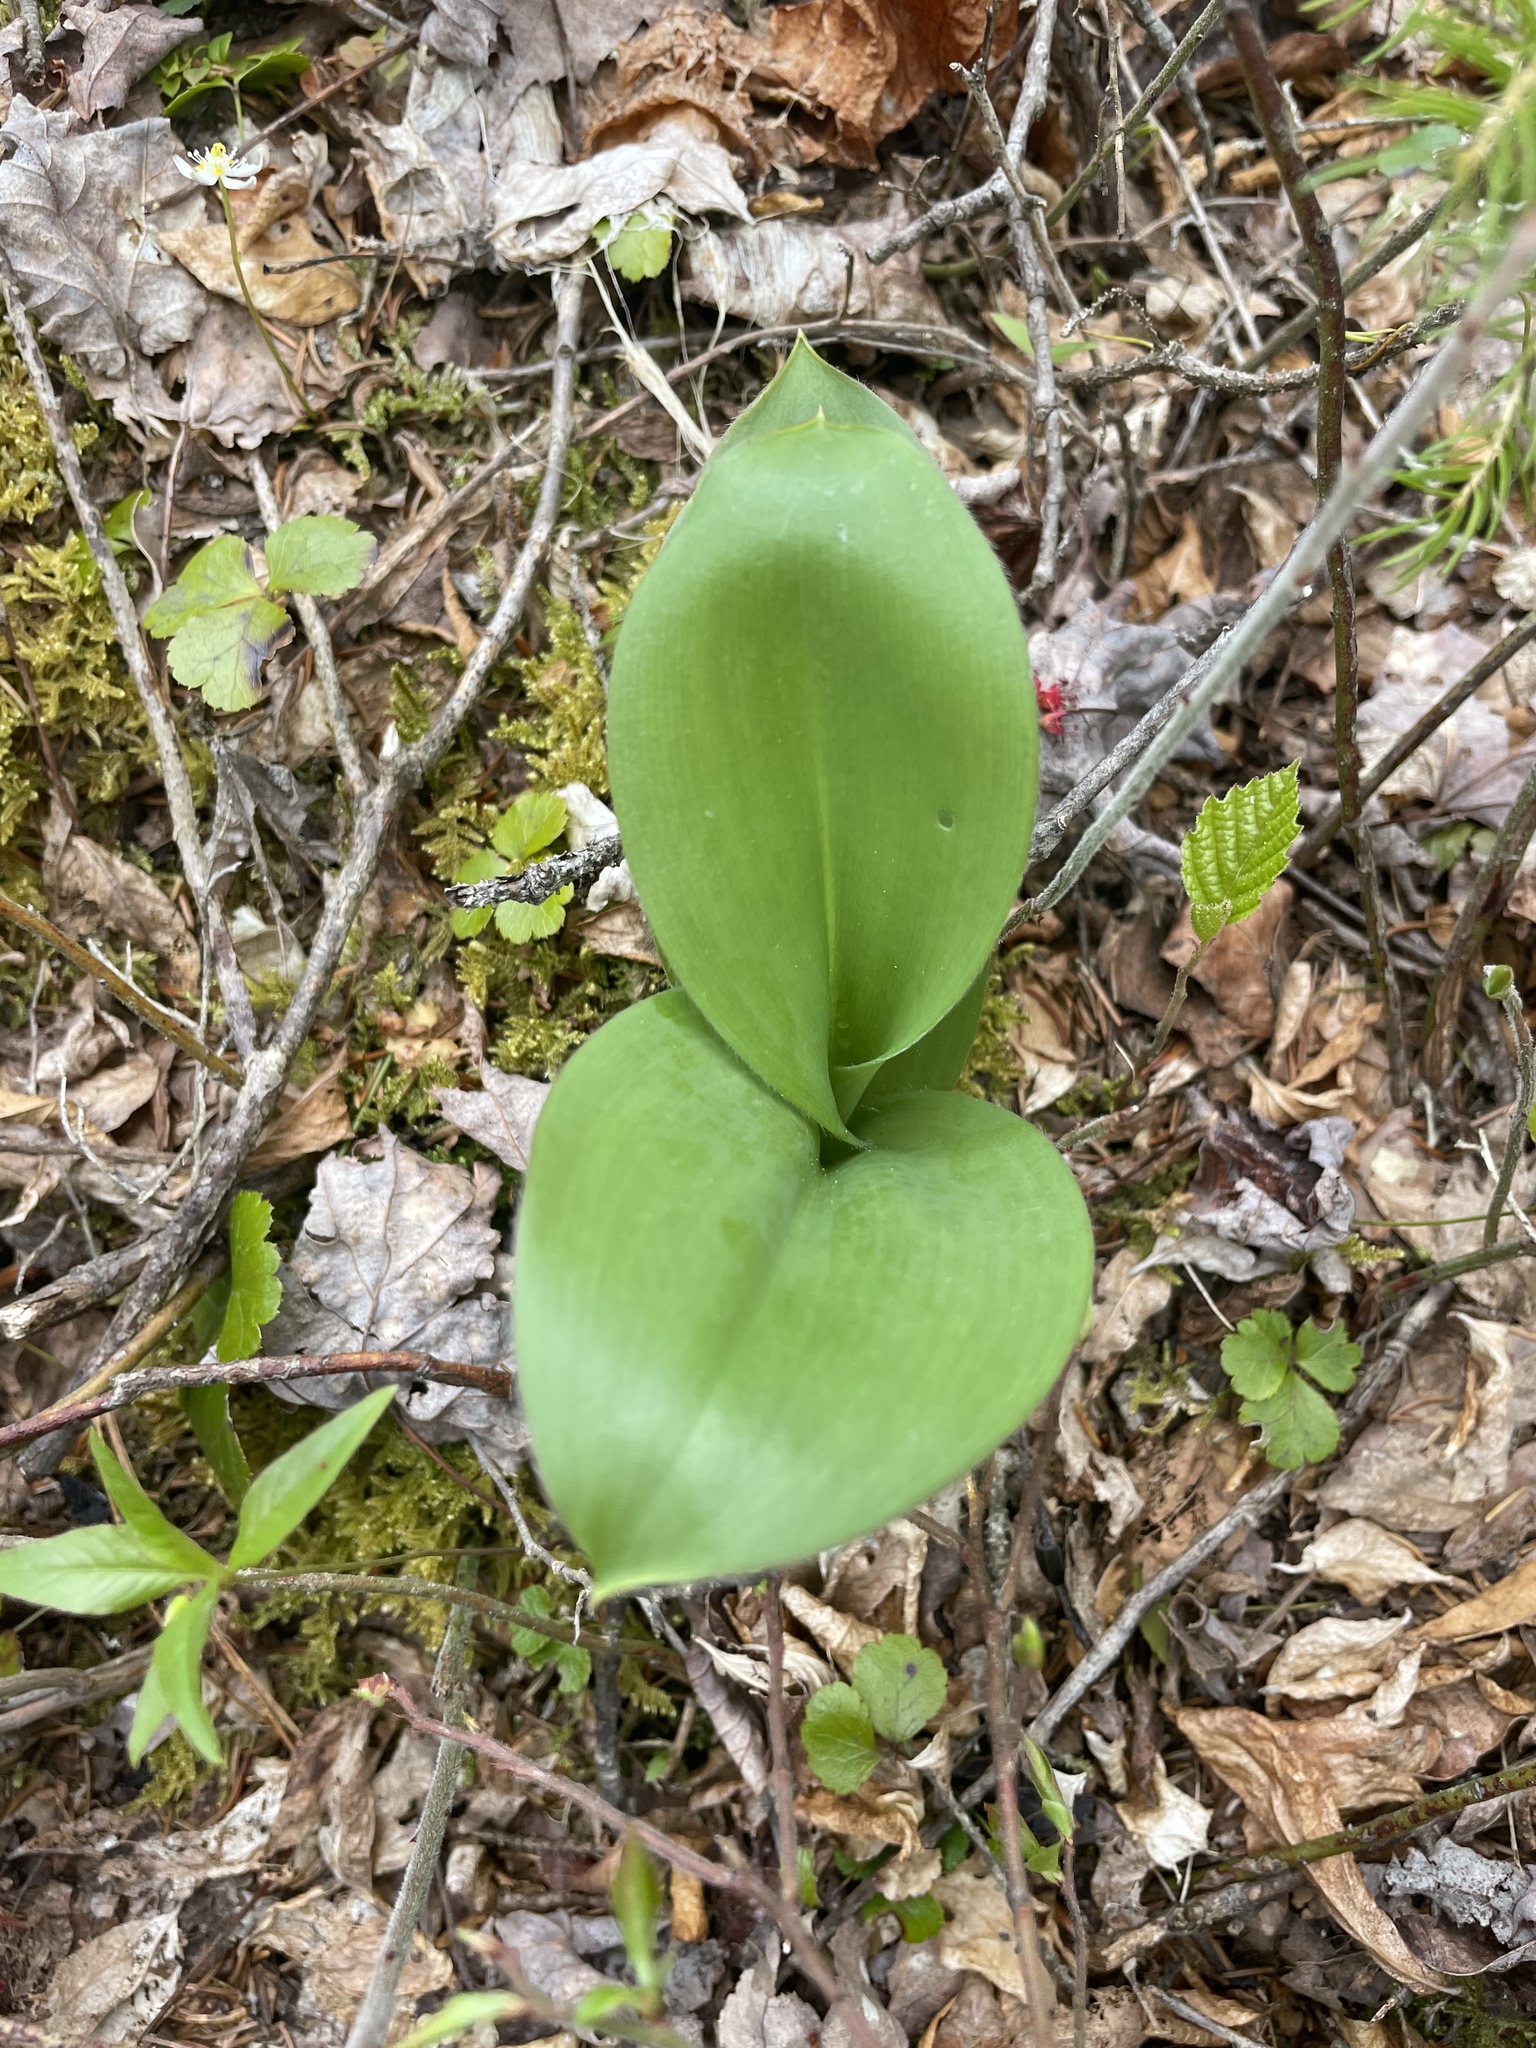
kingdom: Plantae
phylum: Tracheophyta
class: Liliopsida
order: Liliales
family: Liliaceae
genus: Clintonia
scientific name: Clintonia borealis
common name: Yellow clintonia
